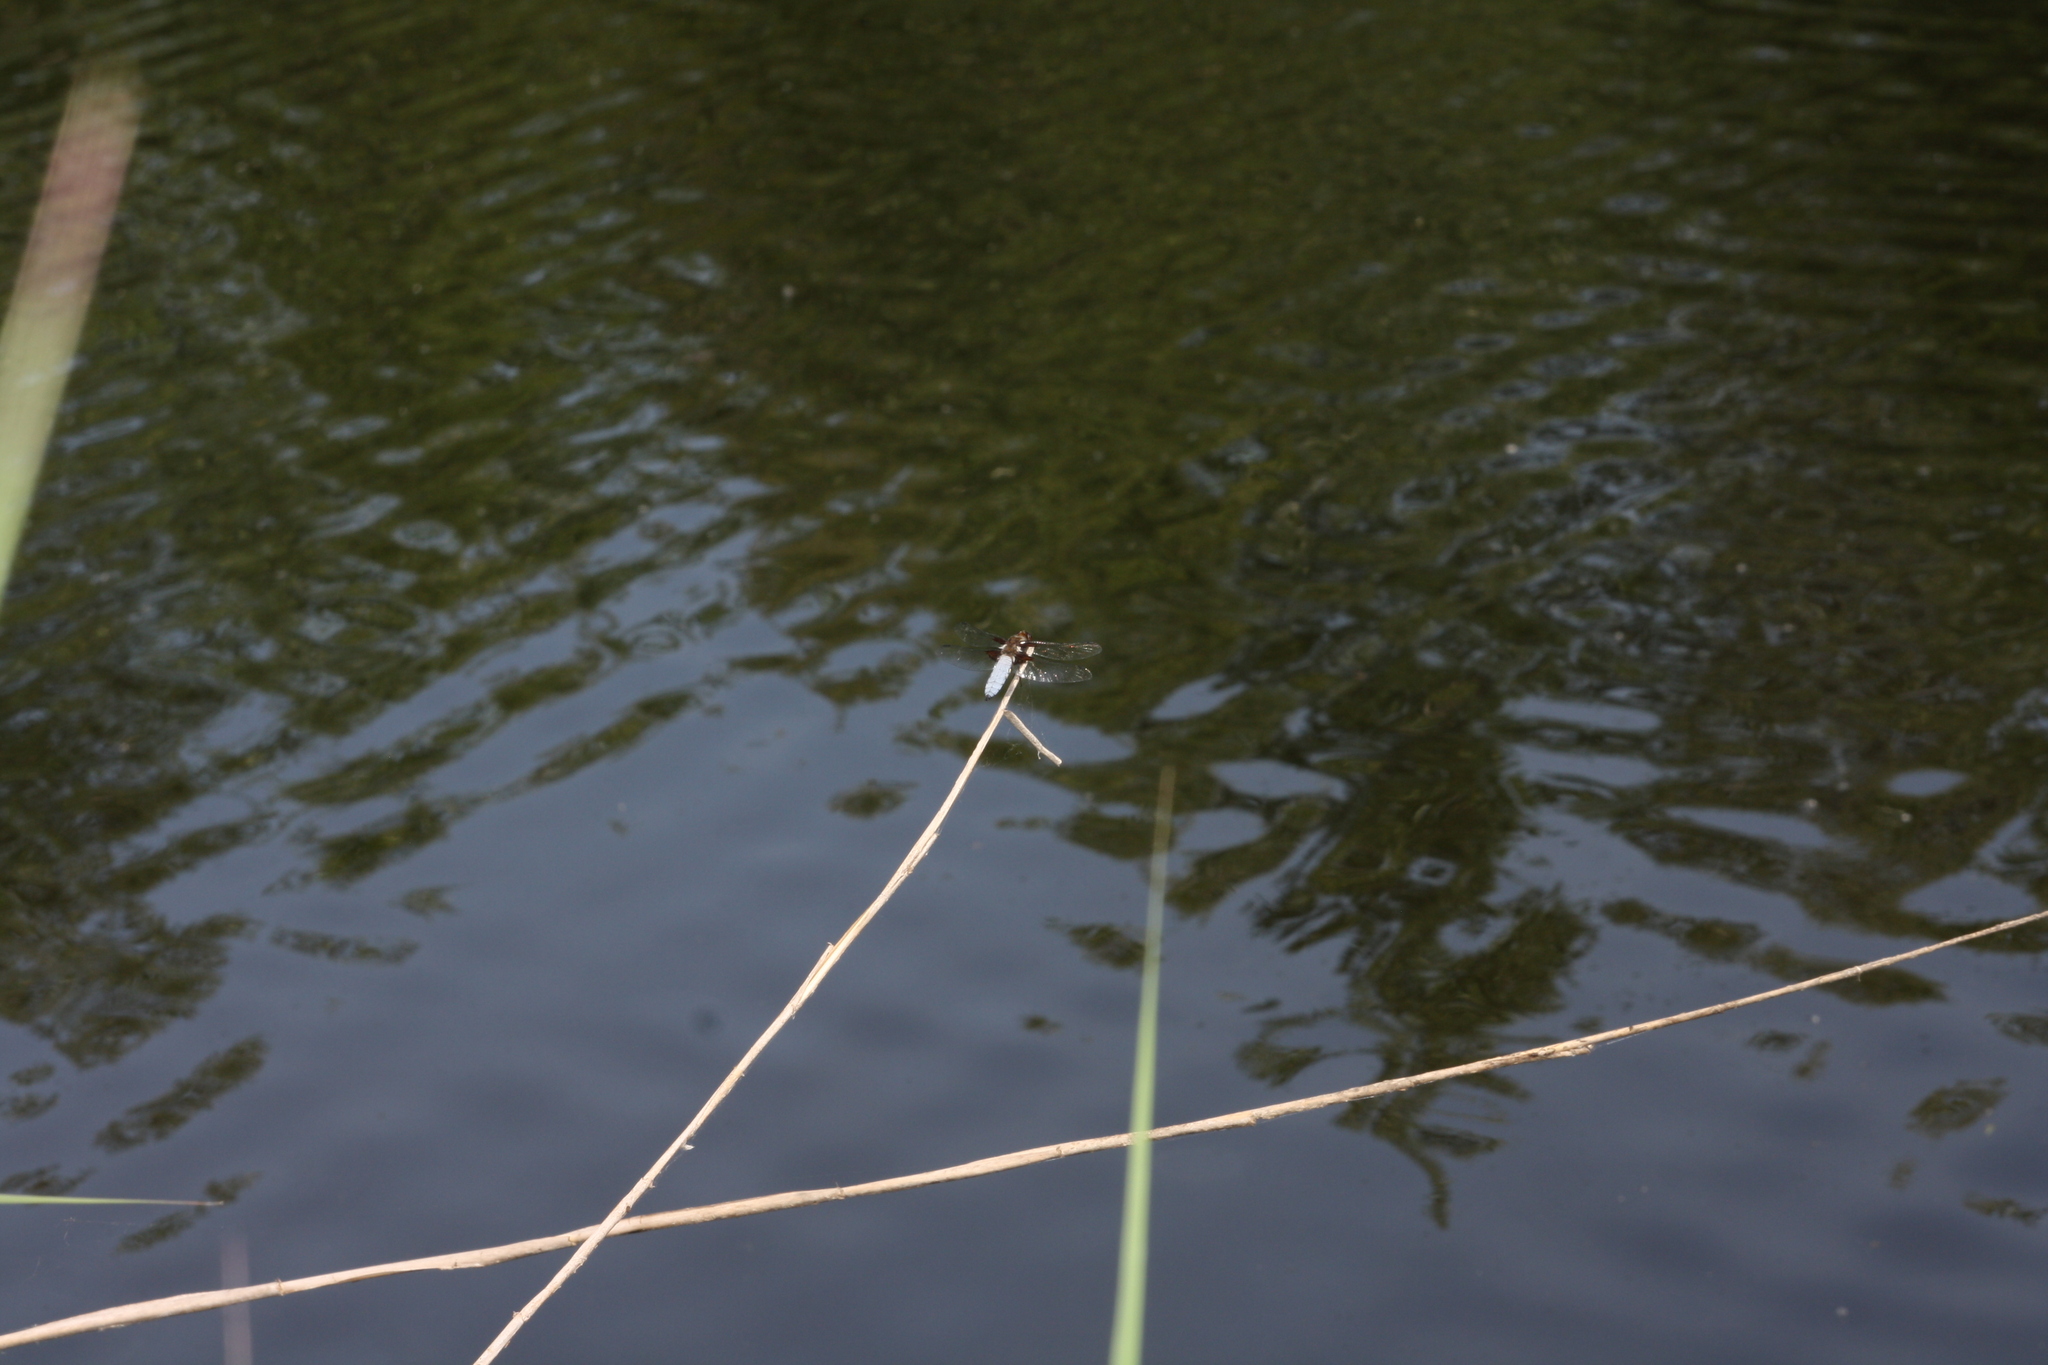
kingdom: Animalia
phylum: Arthropoda
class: Insecta
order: Odonata
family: Libellulidae
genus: Libellula
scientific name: Libellula depressa
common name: Broad-bodied chaser
